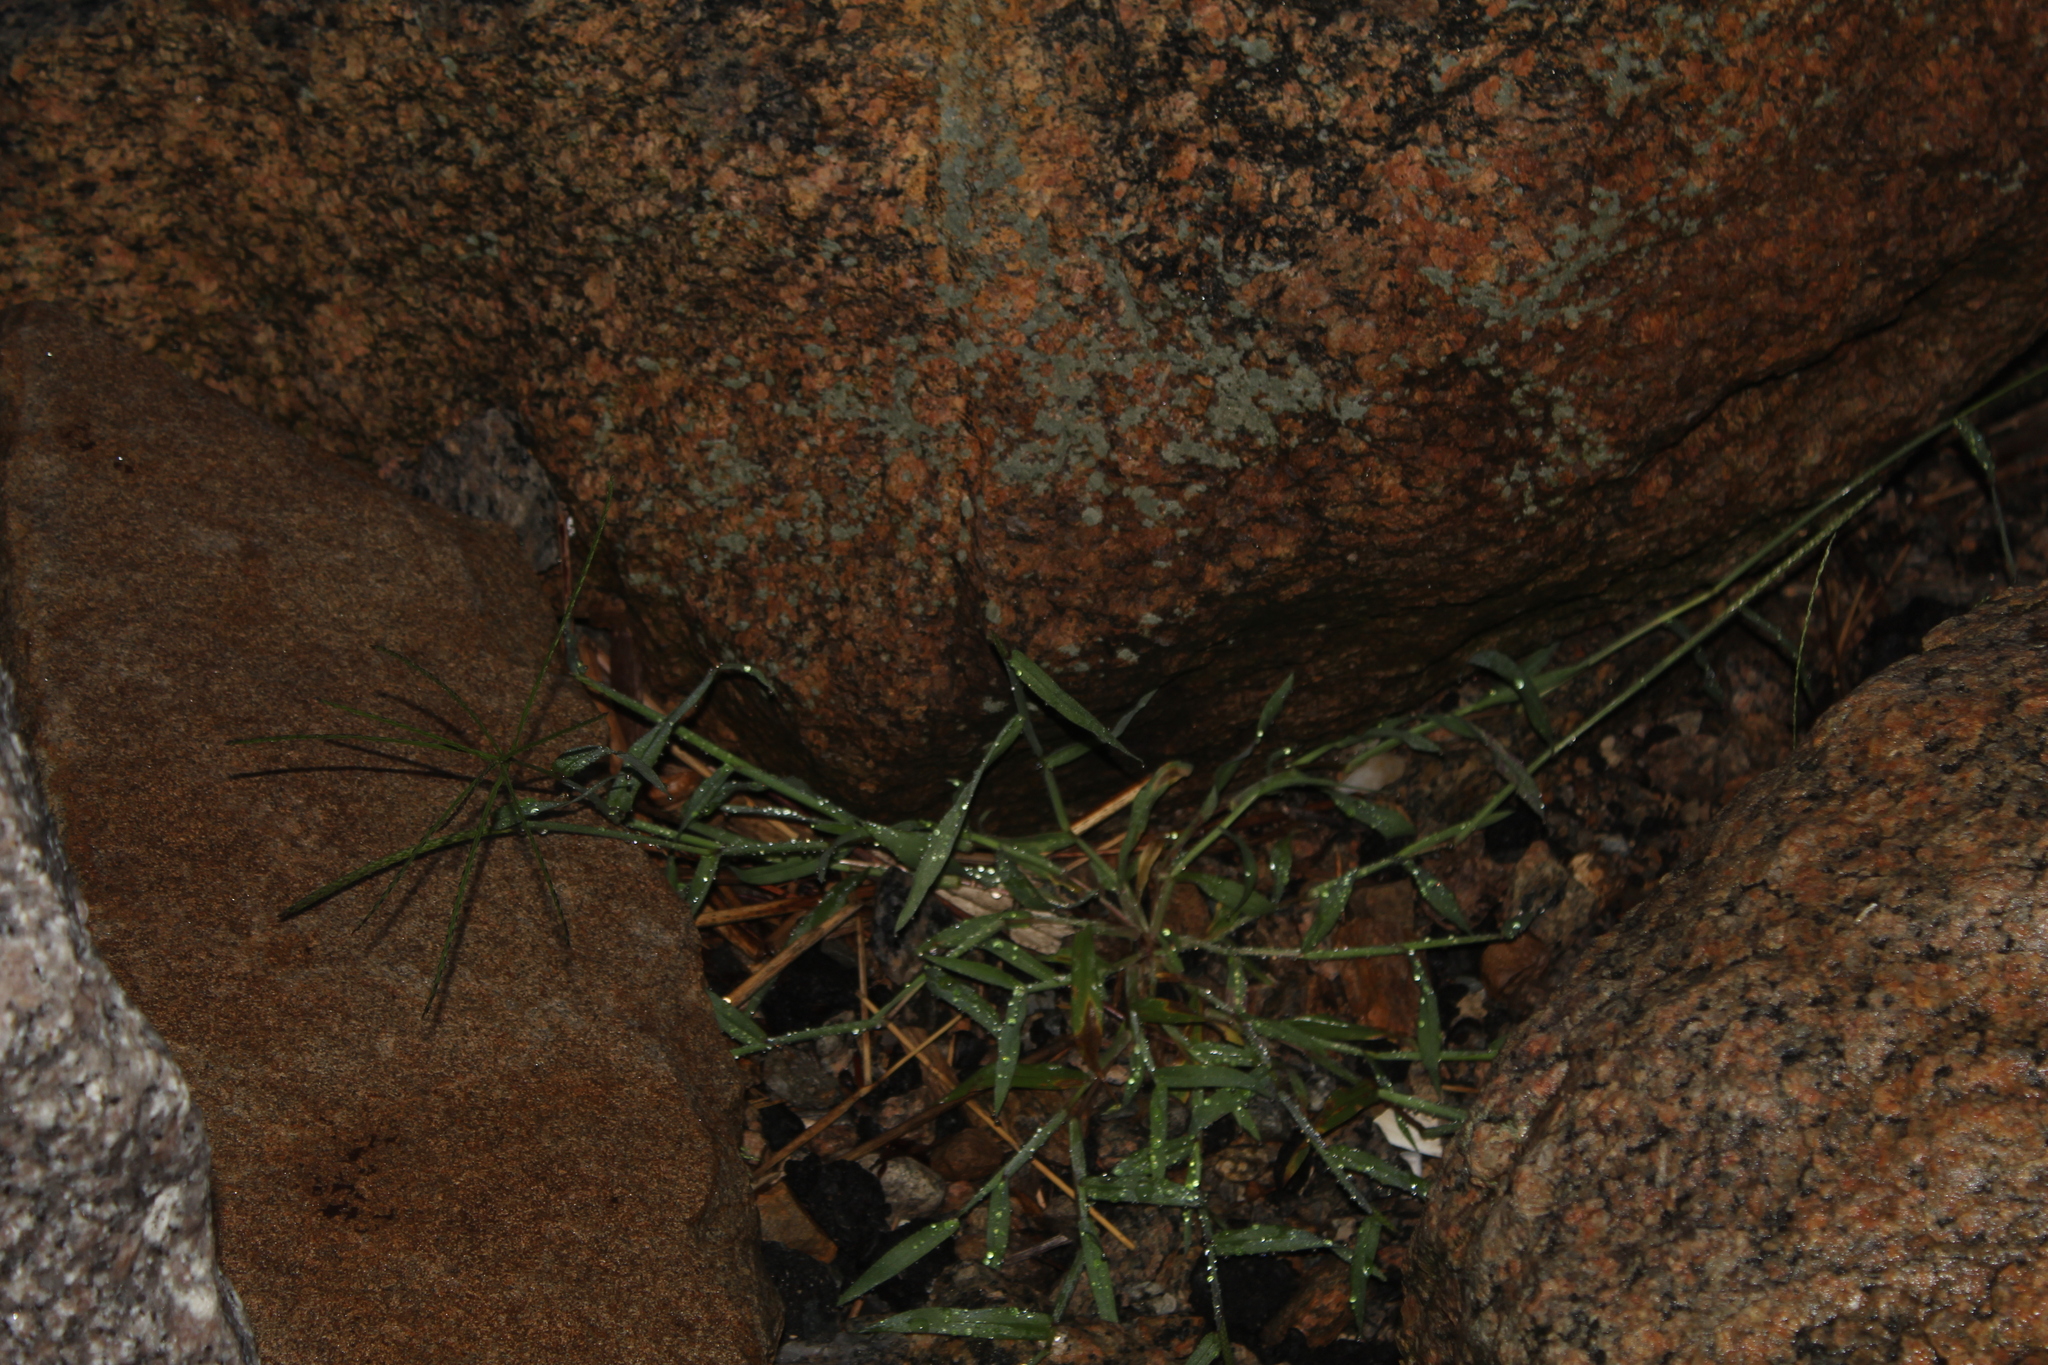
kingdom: Plantae
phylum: Tracheophyta
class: Liliopsida
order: Poales
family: Poaceae
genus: Digitaria
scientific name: Digitaria sanguinalis
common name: Hairy crabgrass
